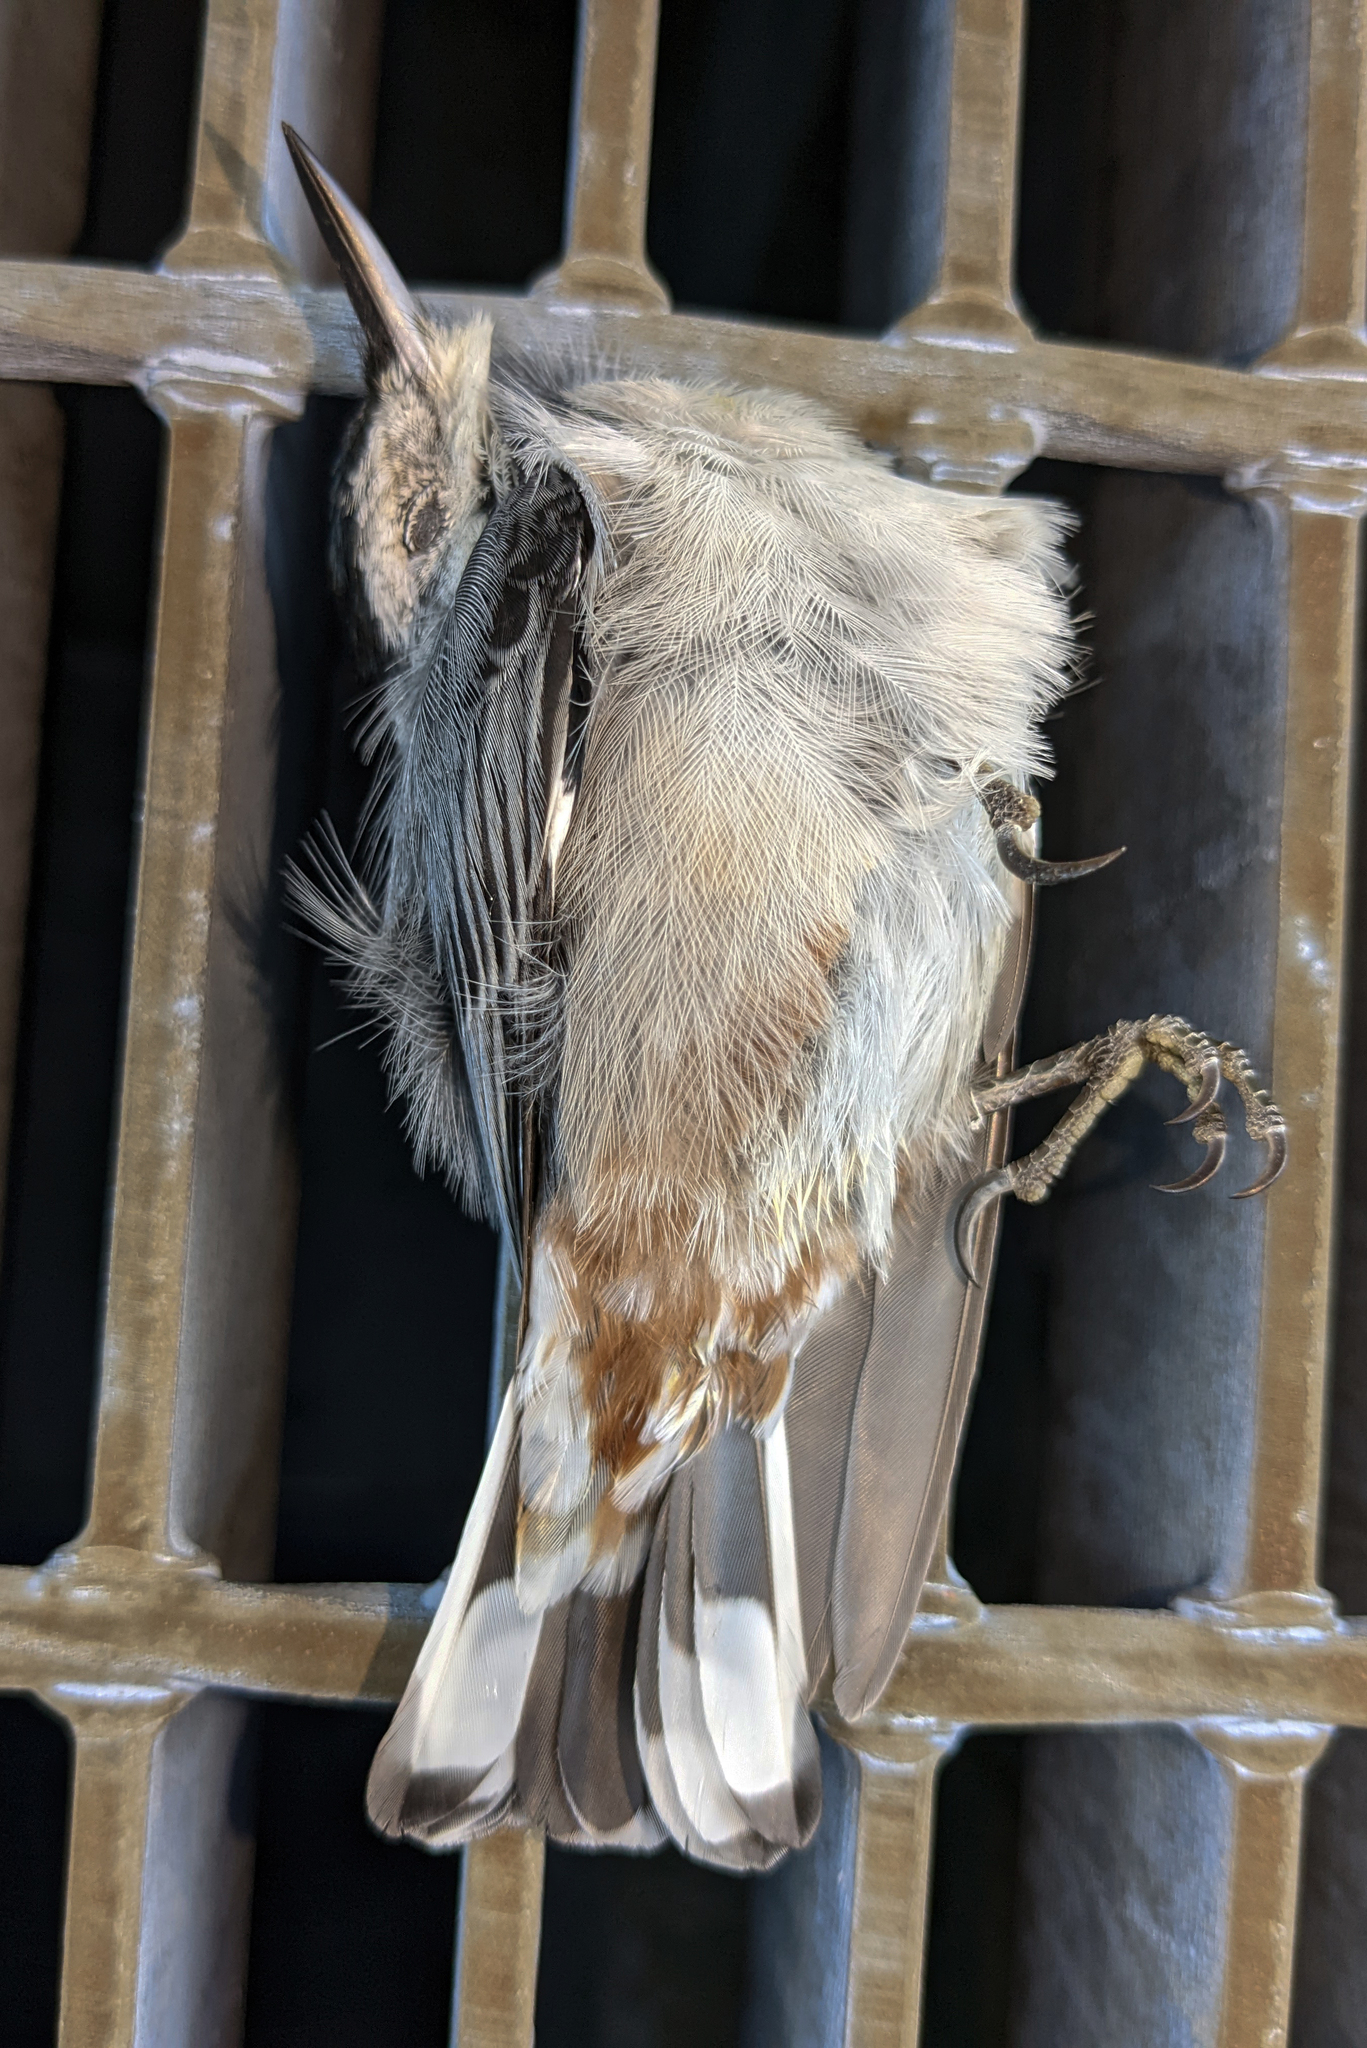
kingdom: Animalia
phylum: Chordata
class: Aves
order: Passeriformes
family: Sittidae
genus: Sitta
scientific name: Sitta carolinensis
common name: White-breasted nuthatch
